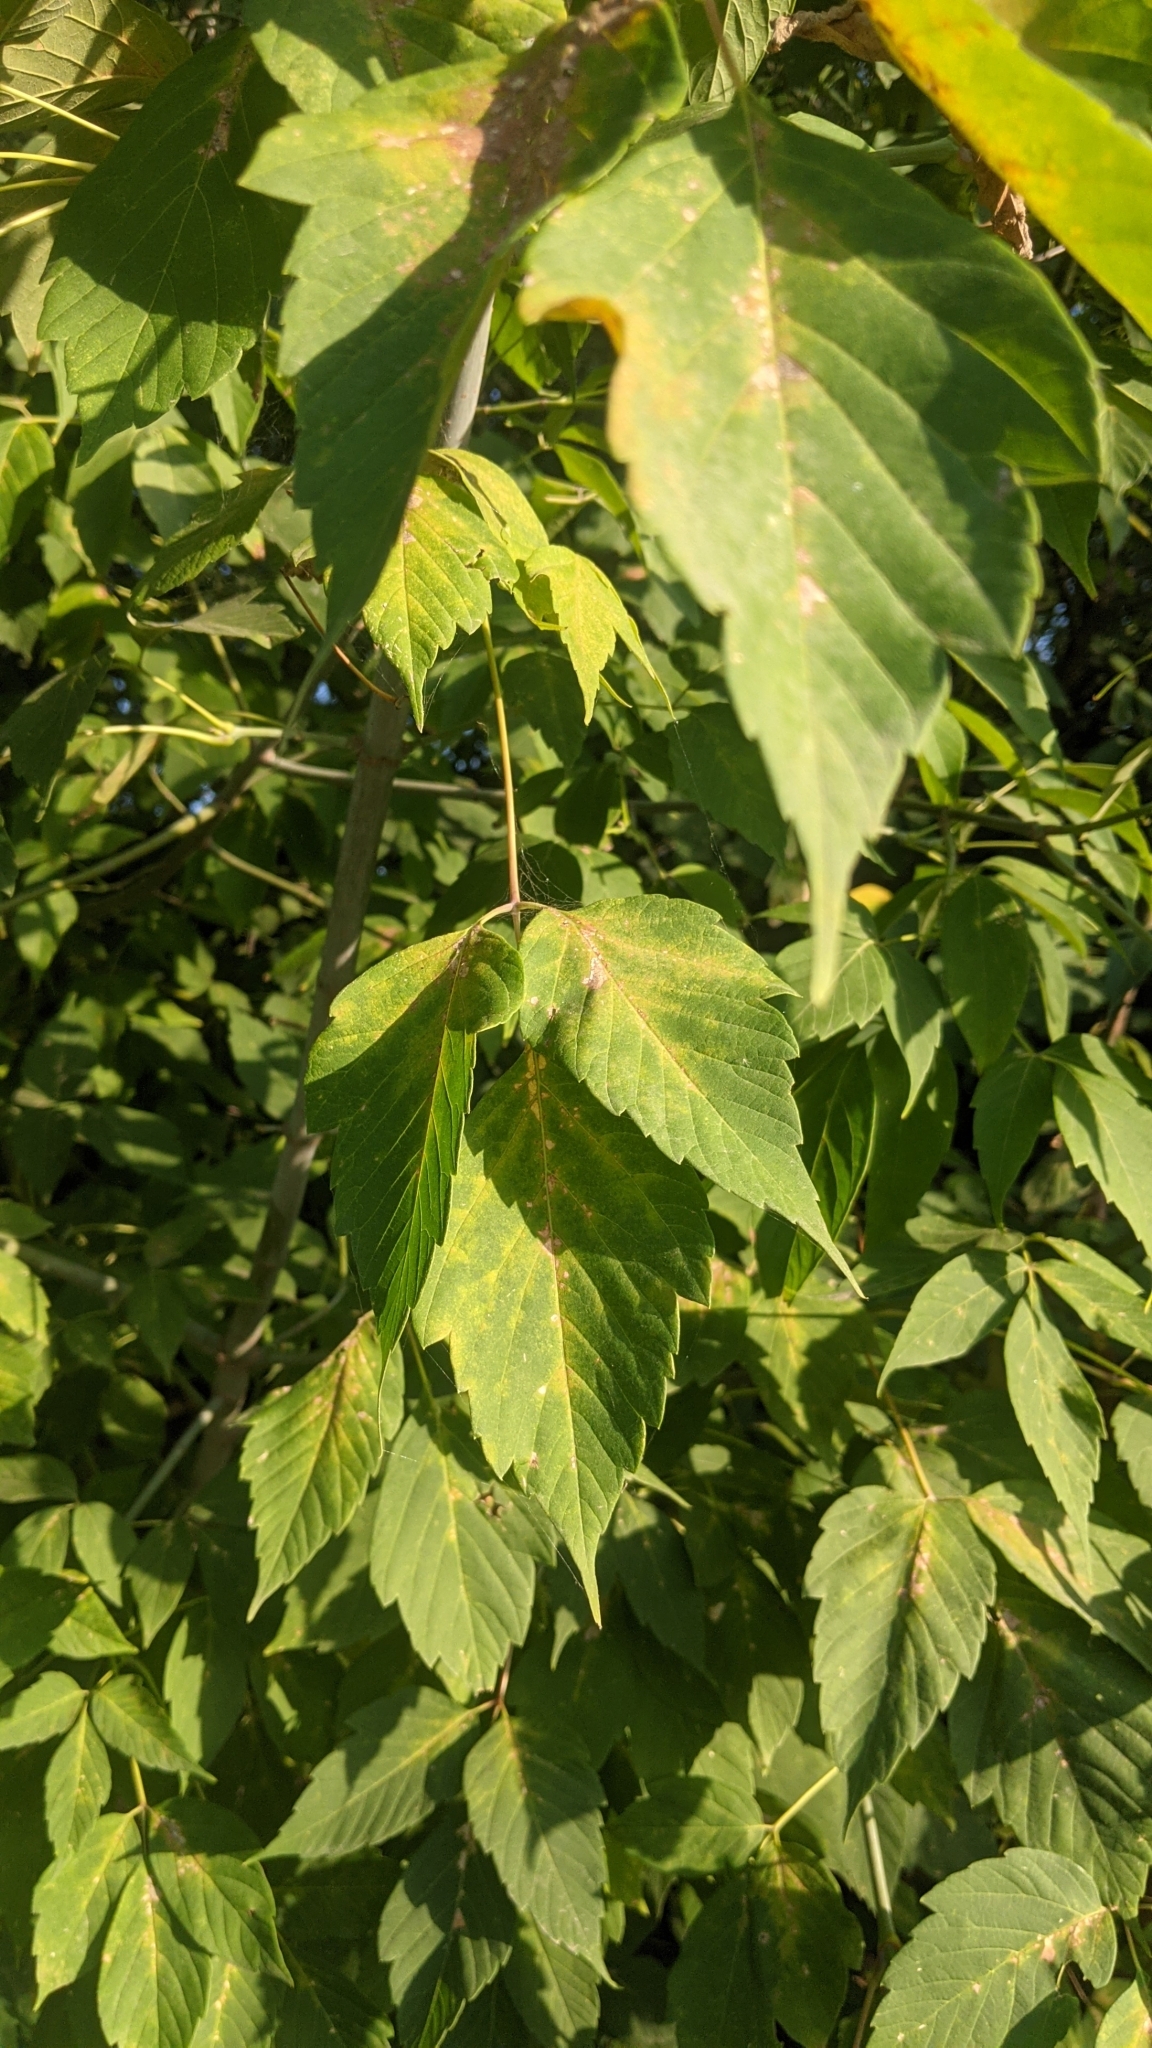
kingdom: Plantae
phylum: Tracheophyta
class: Magnoliopsida
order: Sapindales
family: Sapindaceae
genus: Acer
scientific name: Acer negundo
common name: Ashleaf maple
